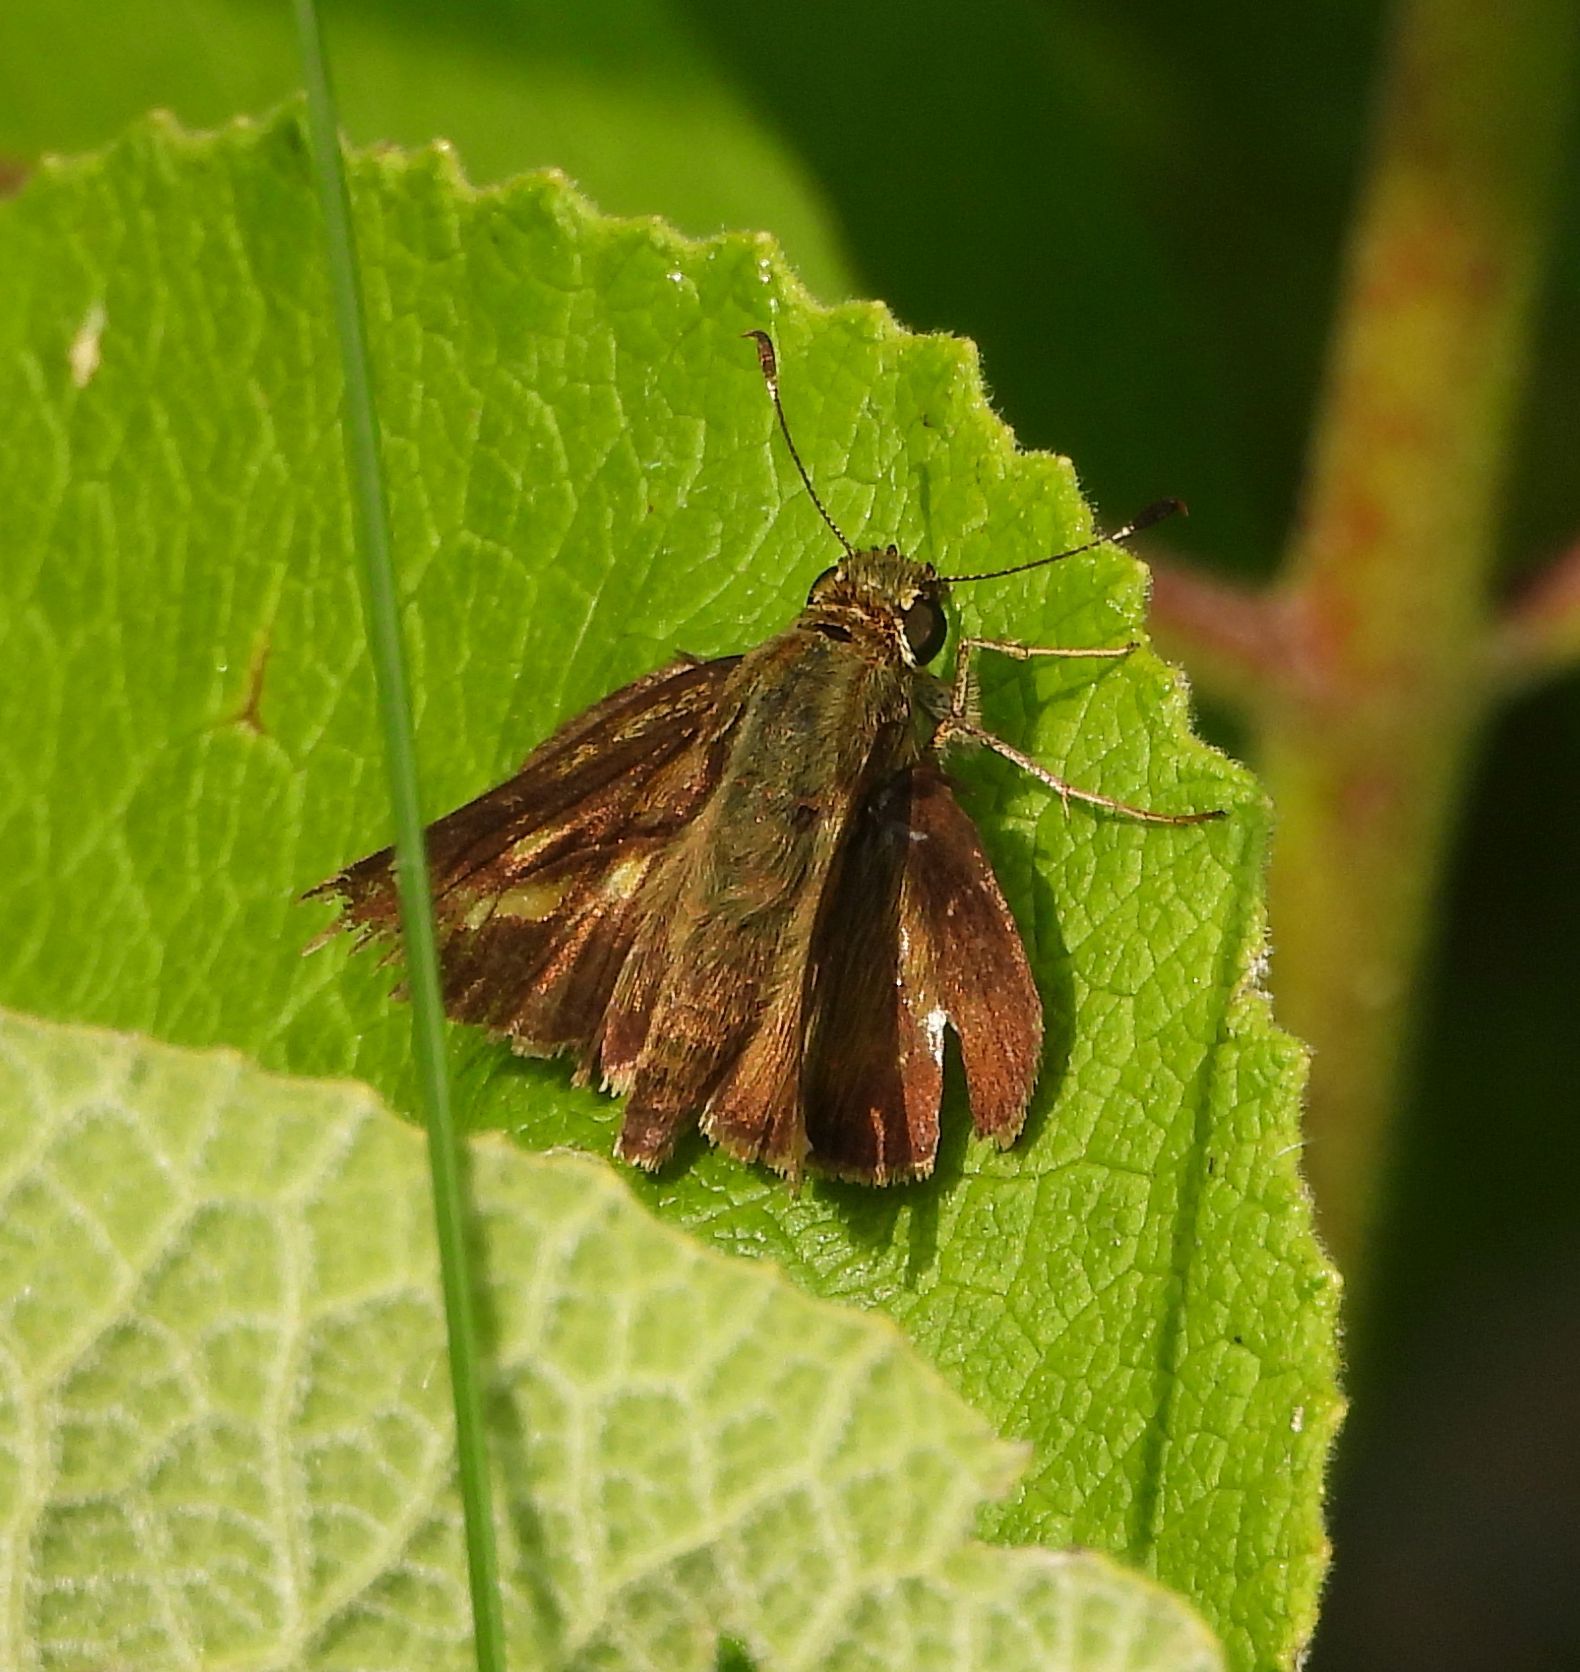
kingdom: Animalia
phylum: Arthropoda
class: Insecta
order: Lepidoptera
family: Hesperiidae
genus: Vernia
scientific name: Vernia verna
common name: Little glassywing
